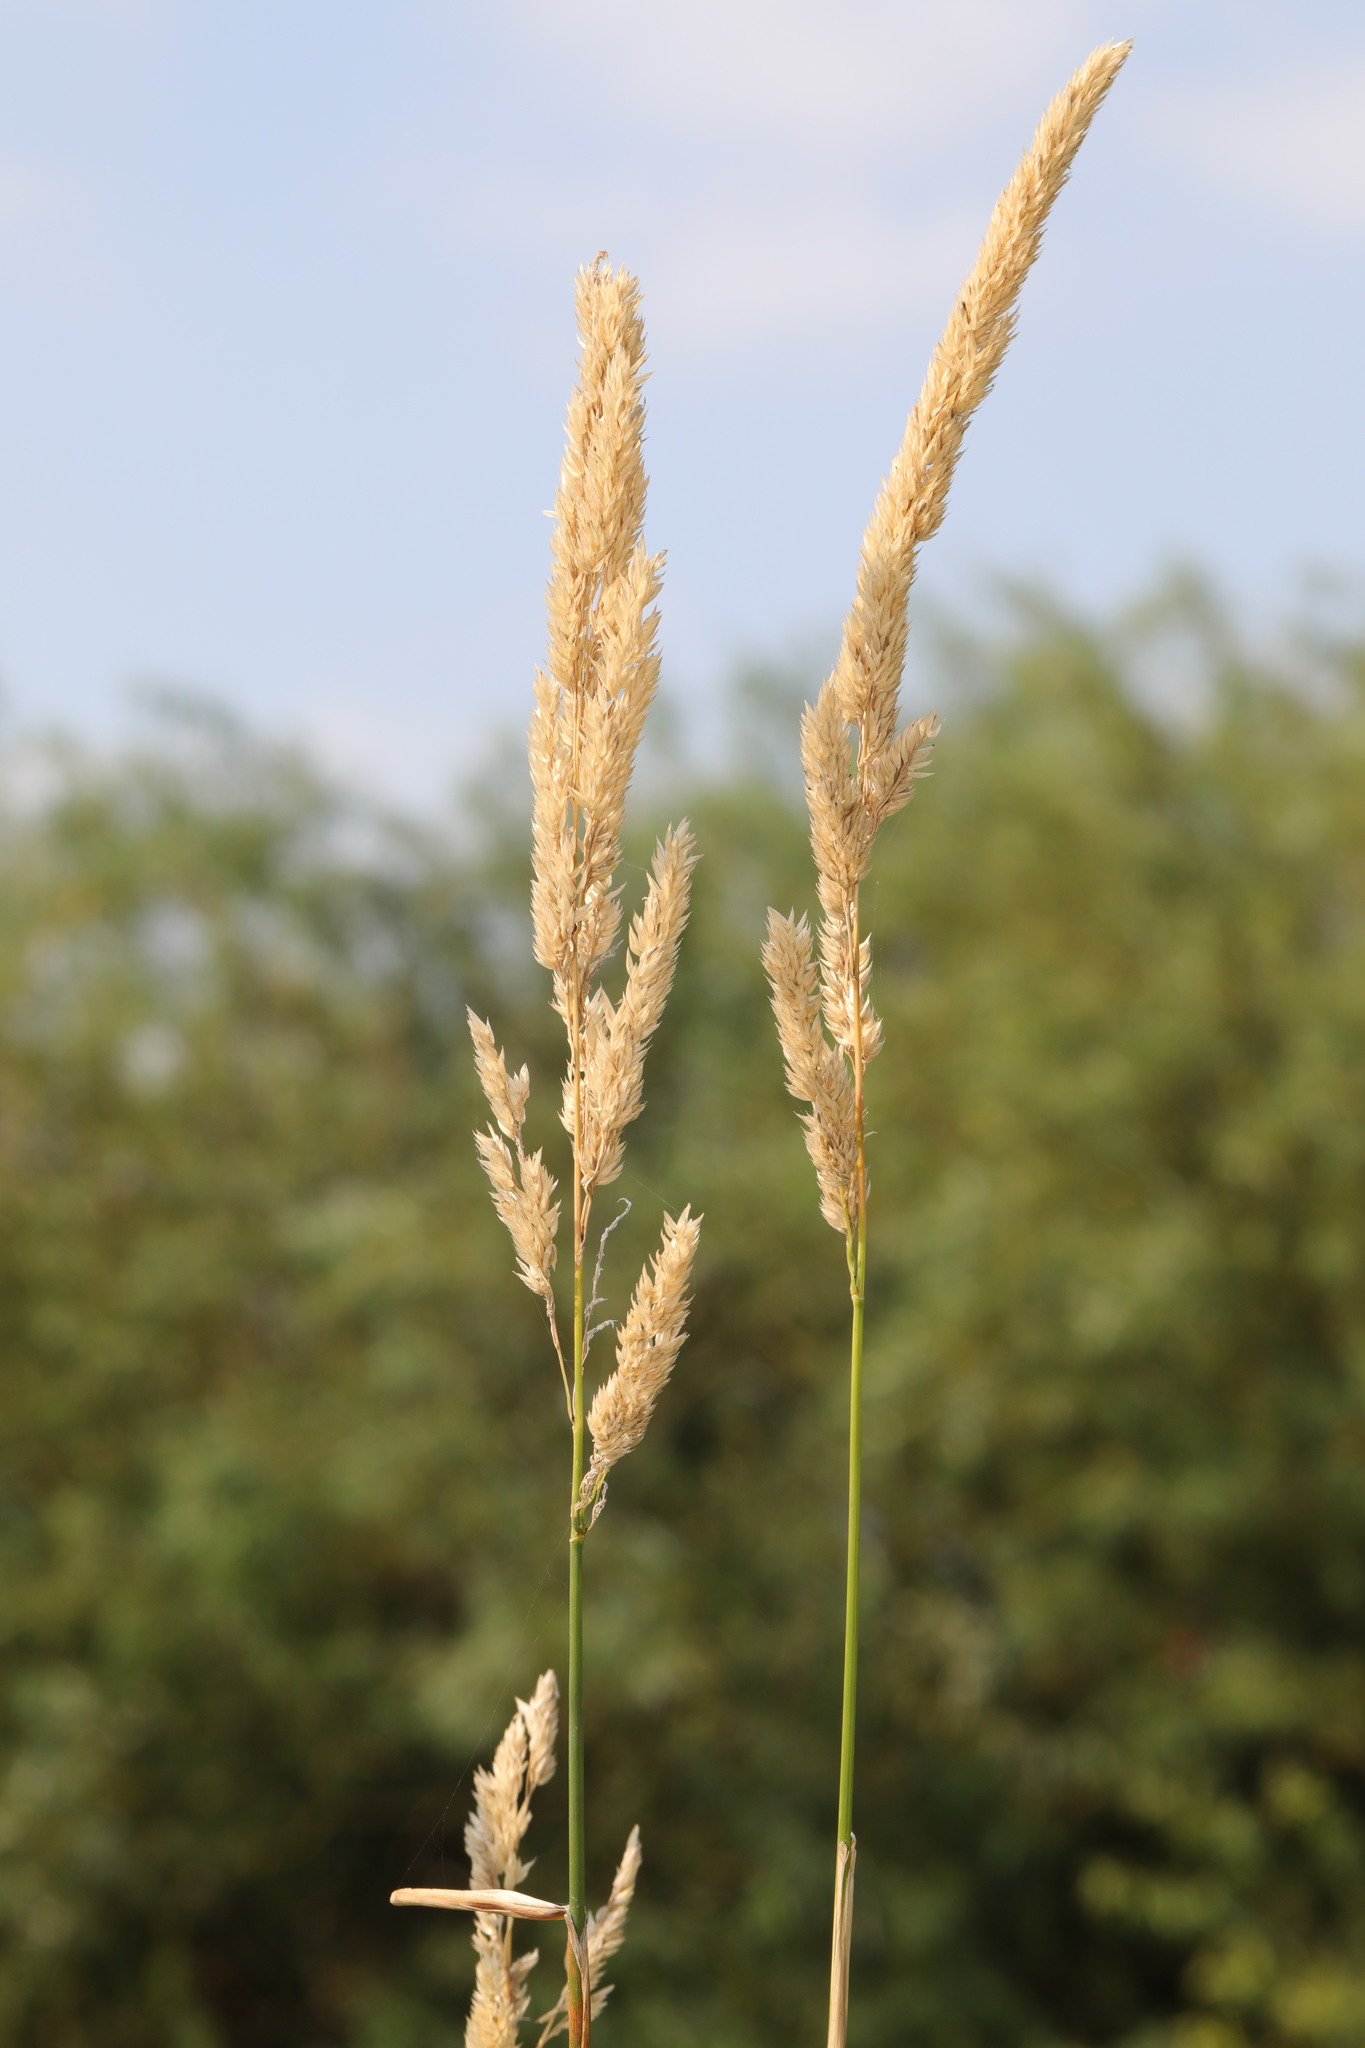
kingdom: Plantae
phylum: Tracheophyta
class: Liliopsida
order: Poales
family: Poaceae
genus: Phalaris
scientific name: Phalaris arundinacea
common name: Reed canary-grass
